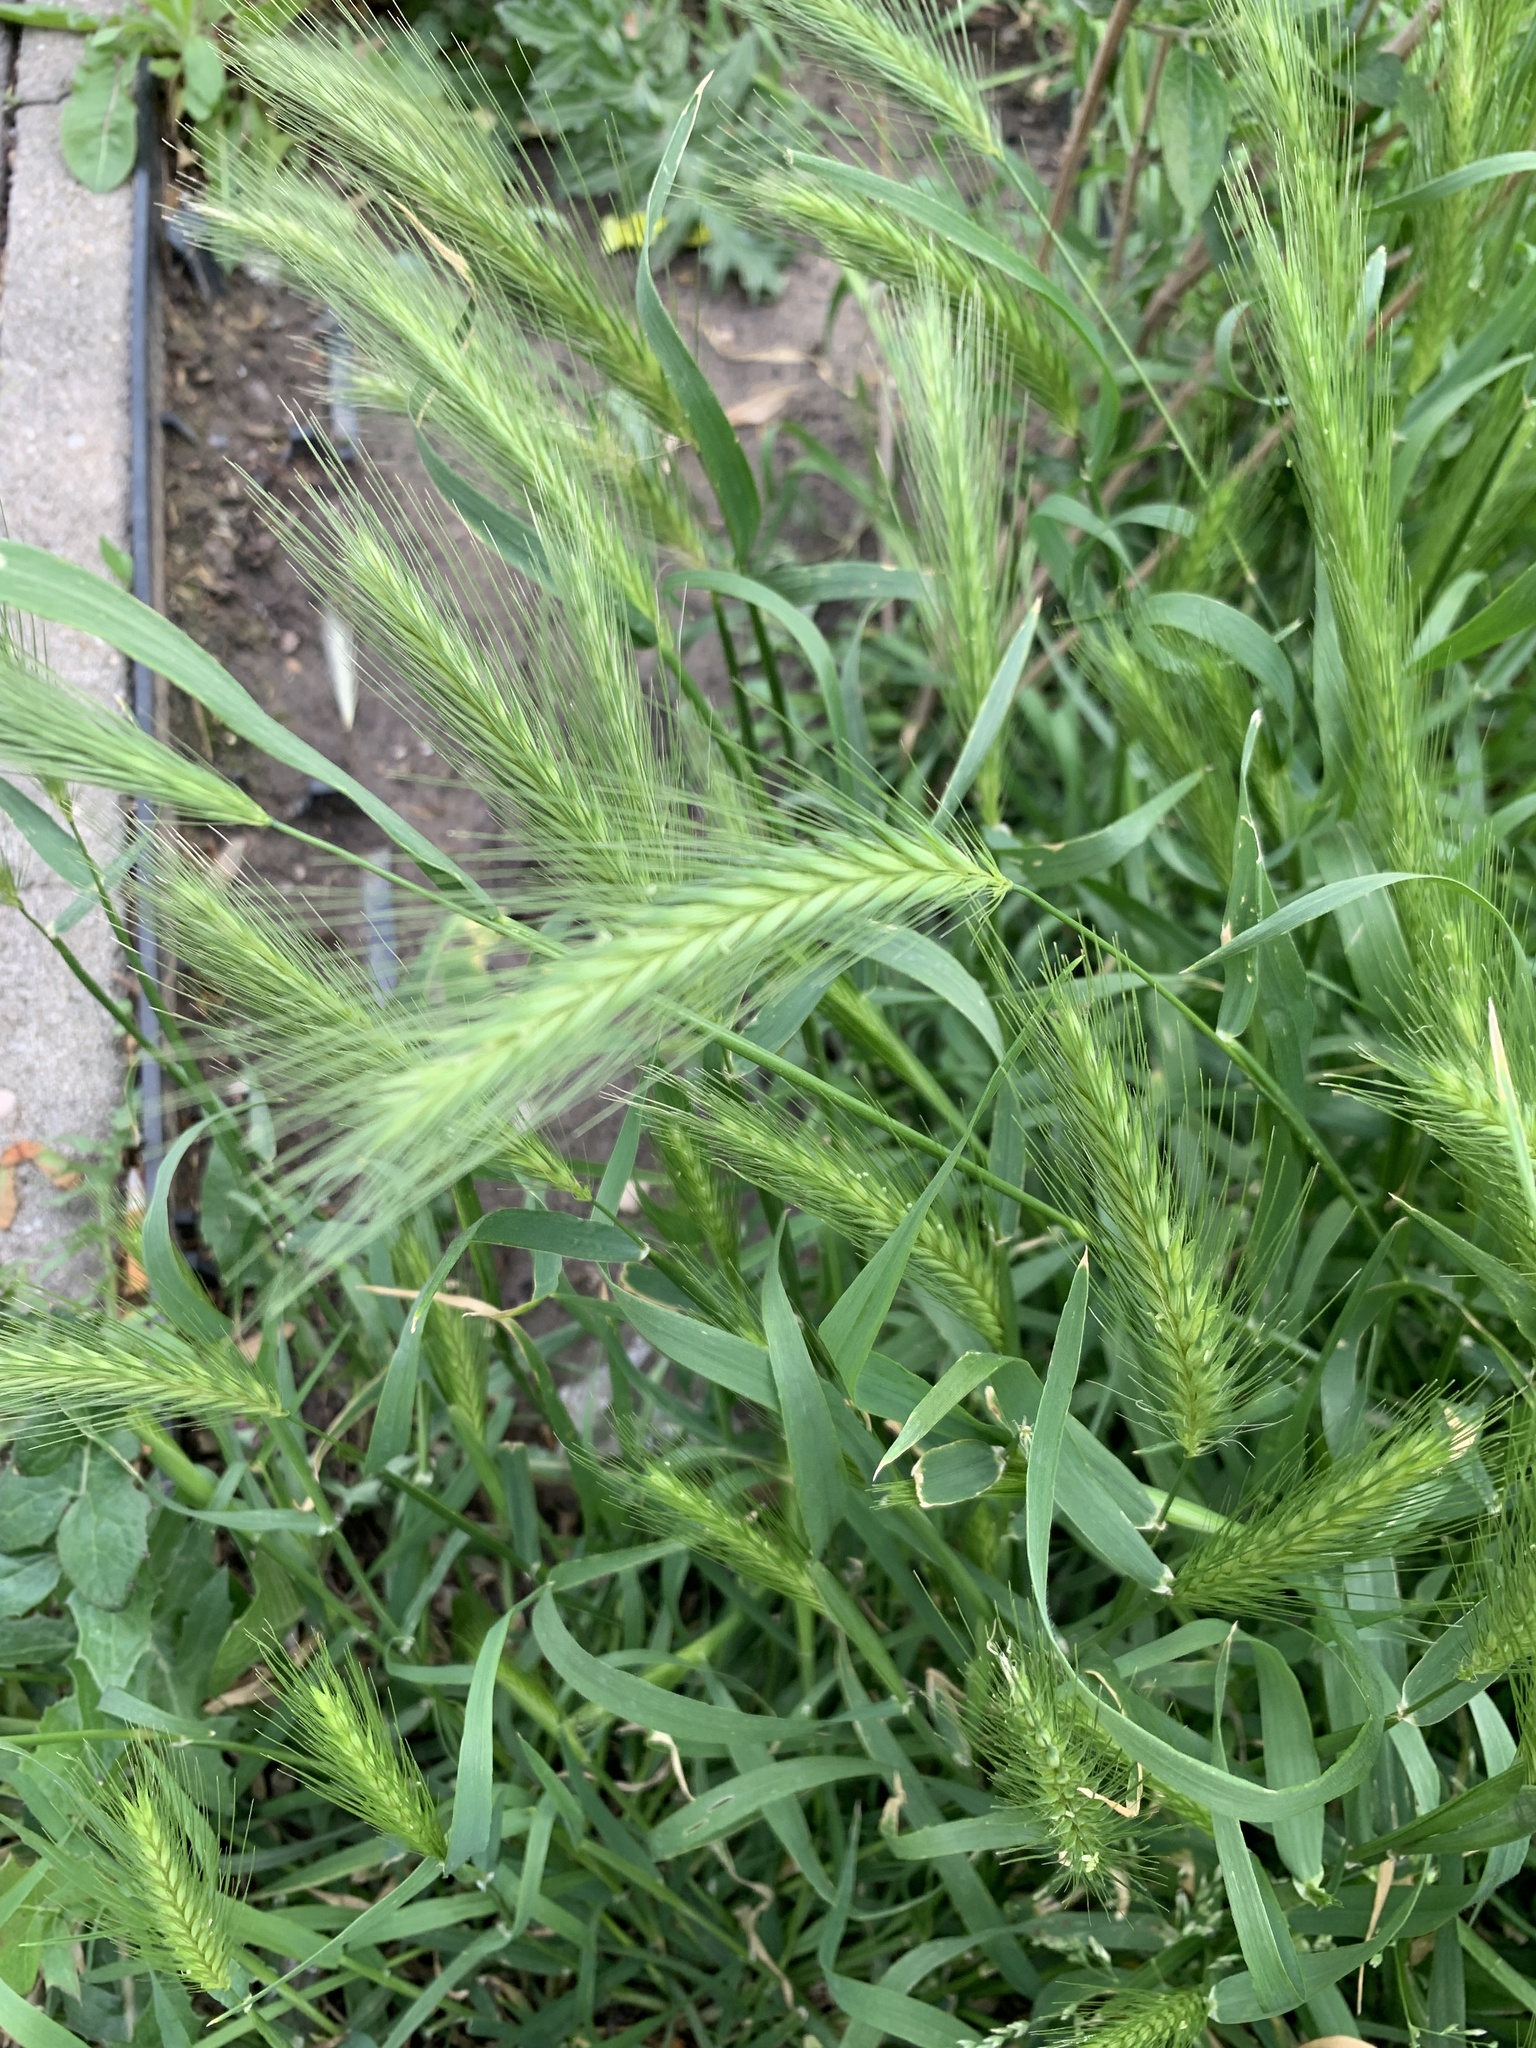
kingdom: Plantae
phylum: Tracheophyta
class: Liliopsida
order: Poales
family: Poaceae
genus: Hordeum
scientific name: Hordeum murinum
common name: Wall barley
